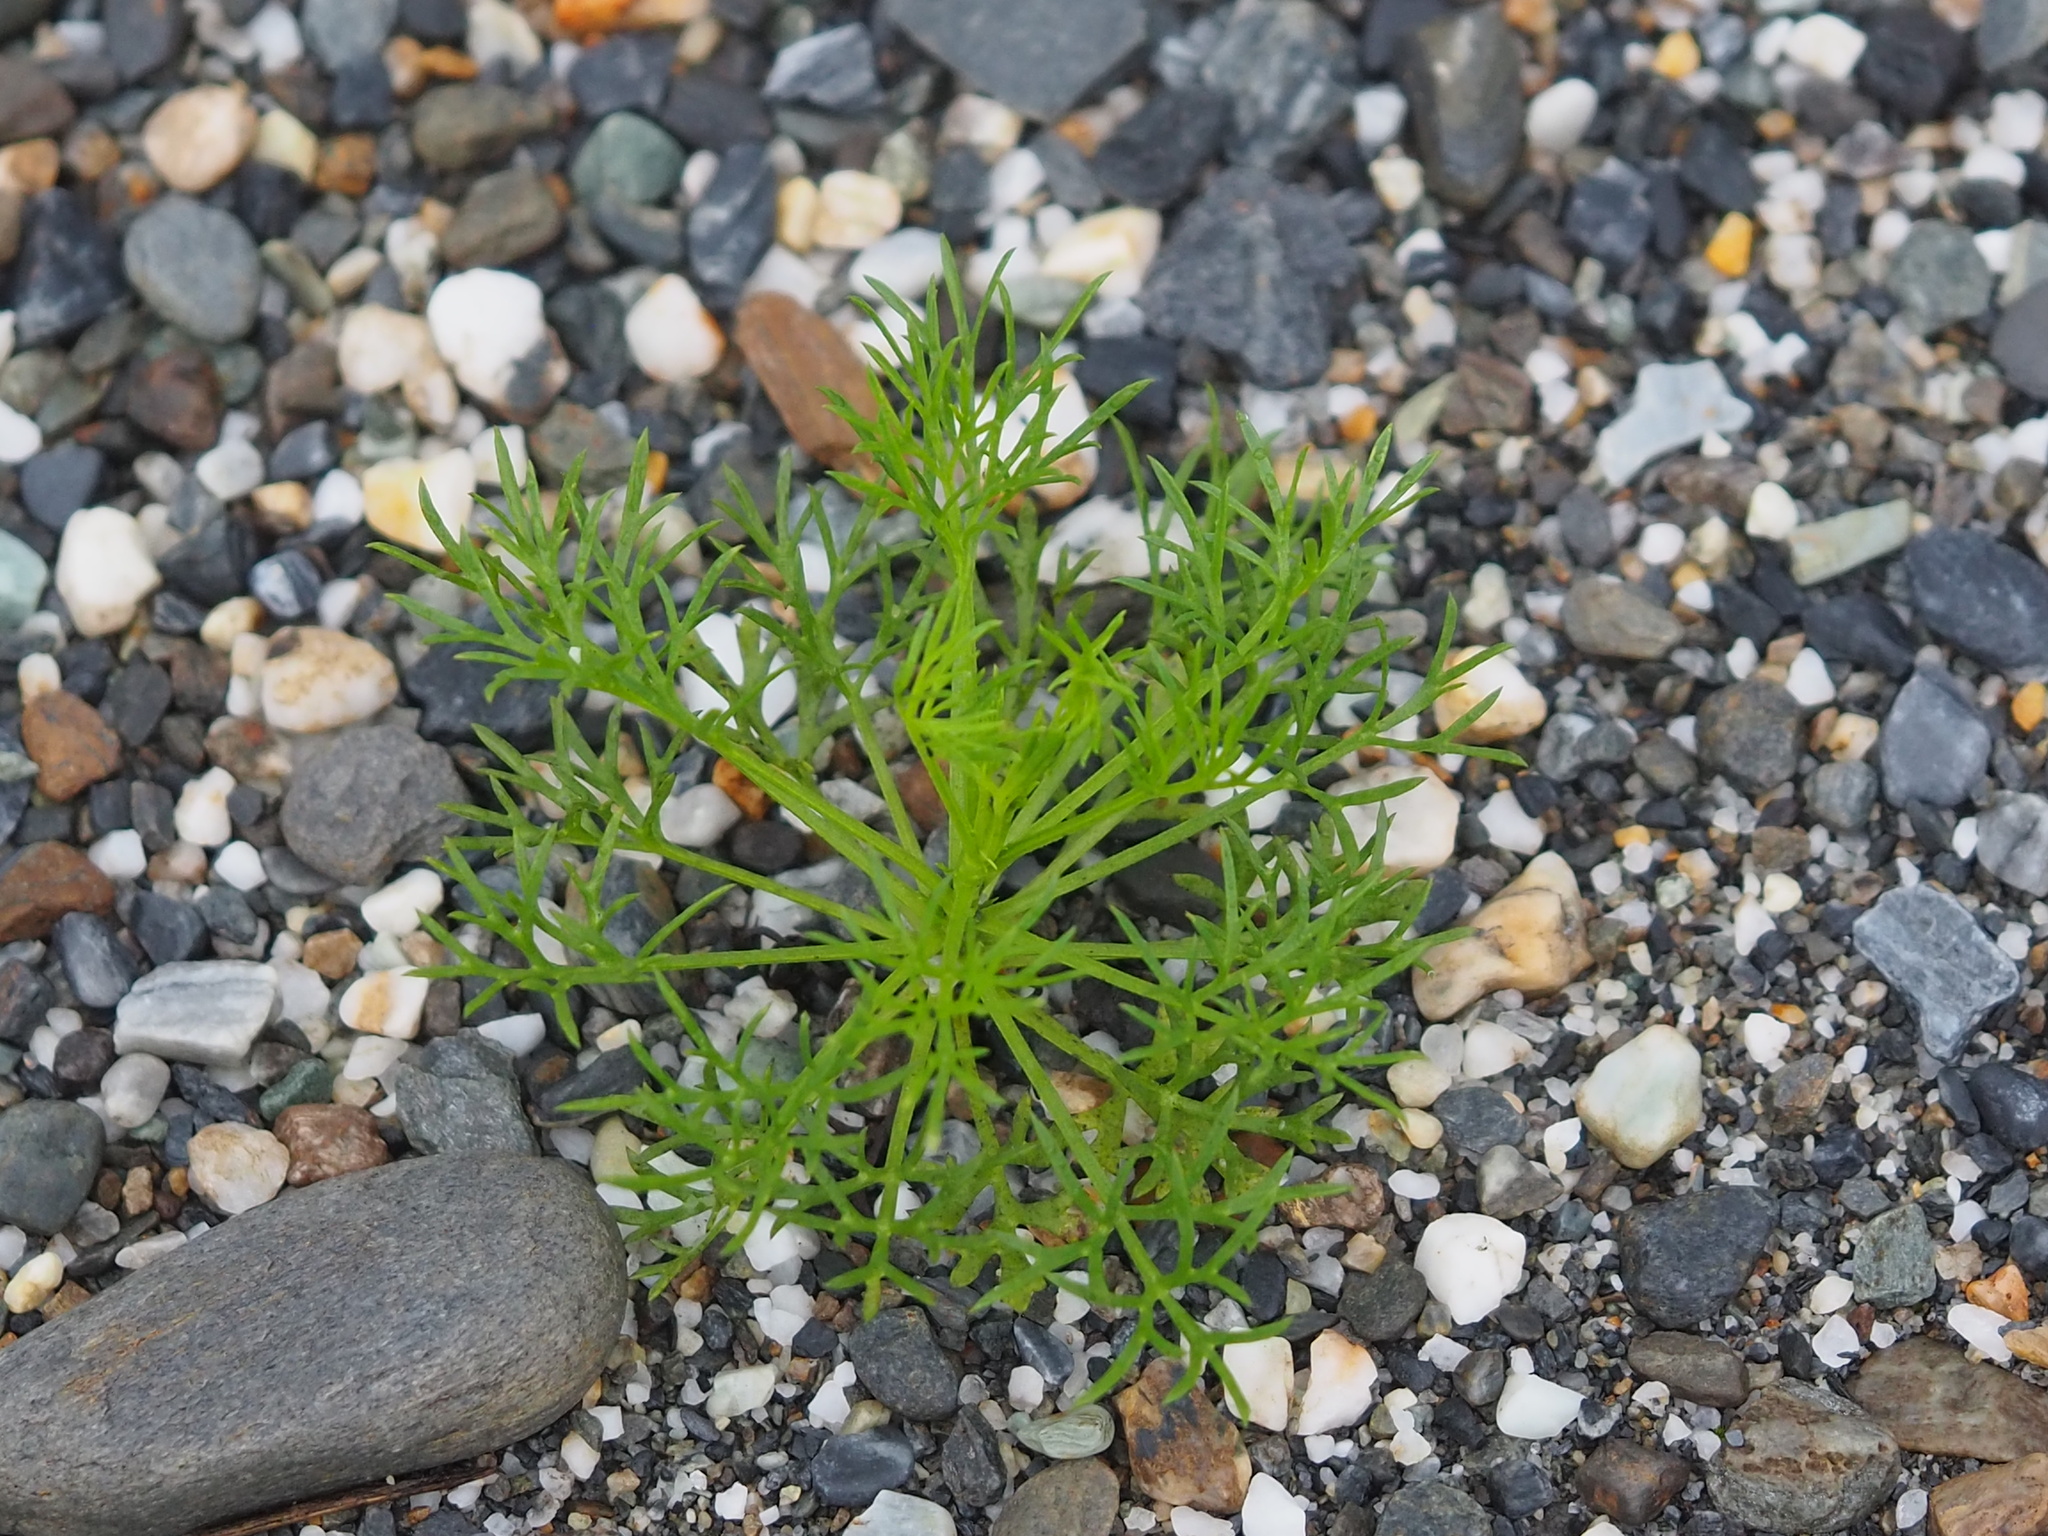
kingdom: Plantae
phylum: Tracheophyta
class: Magnoliopsida
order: Asterales
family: Asteraceae
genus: Artemisia
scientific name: Artemisia capillaris
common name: Yin-chen wormwood
